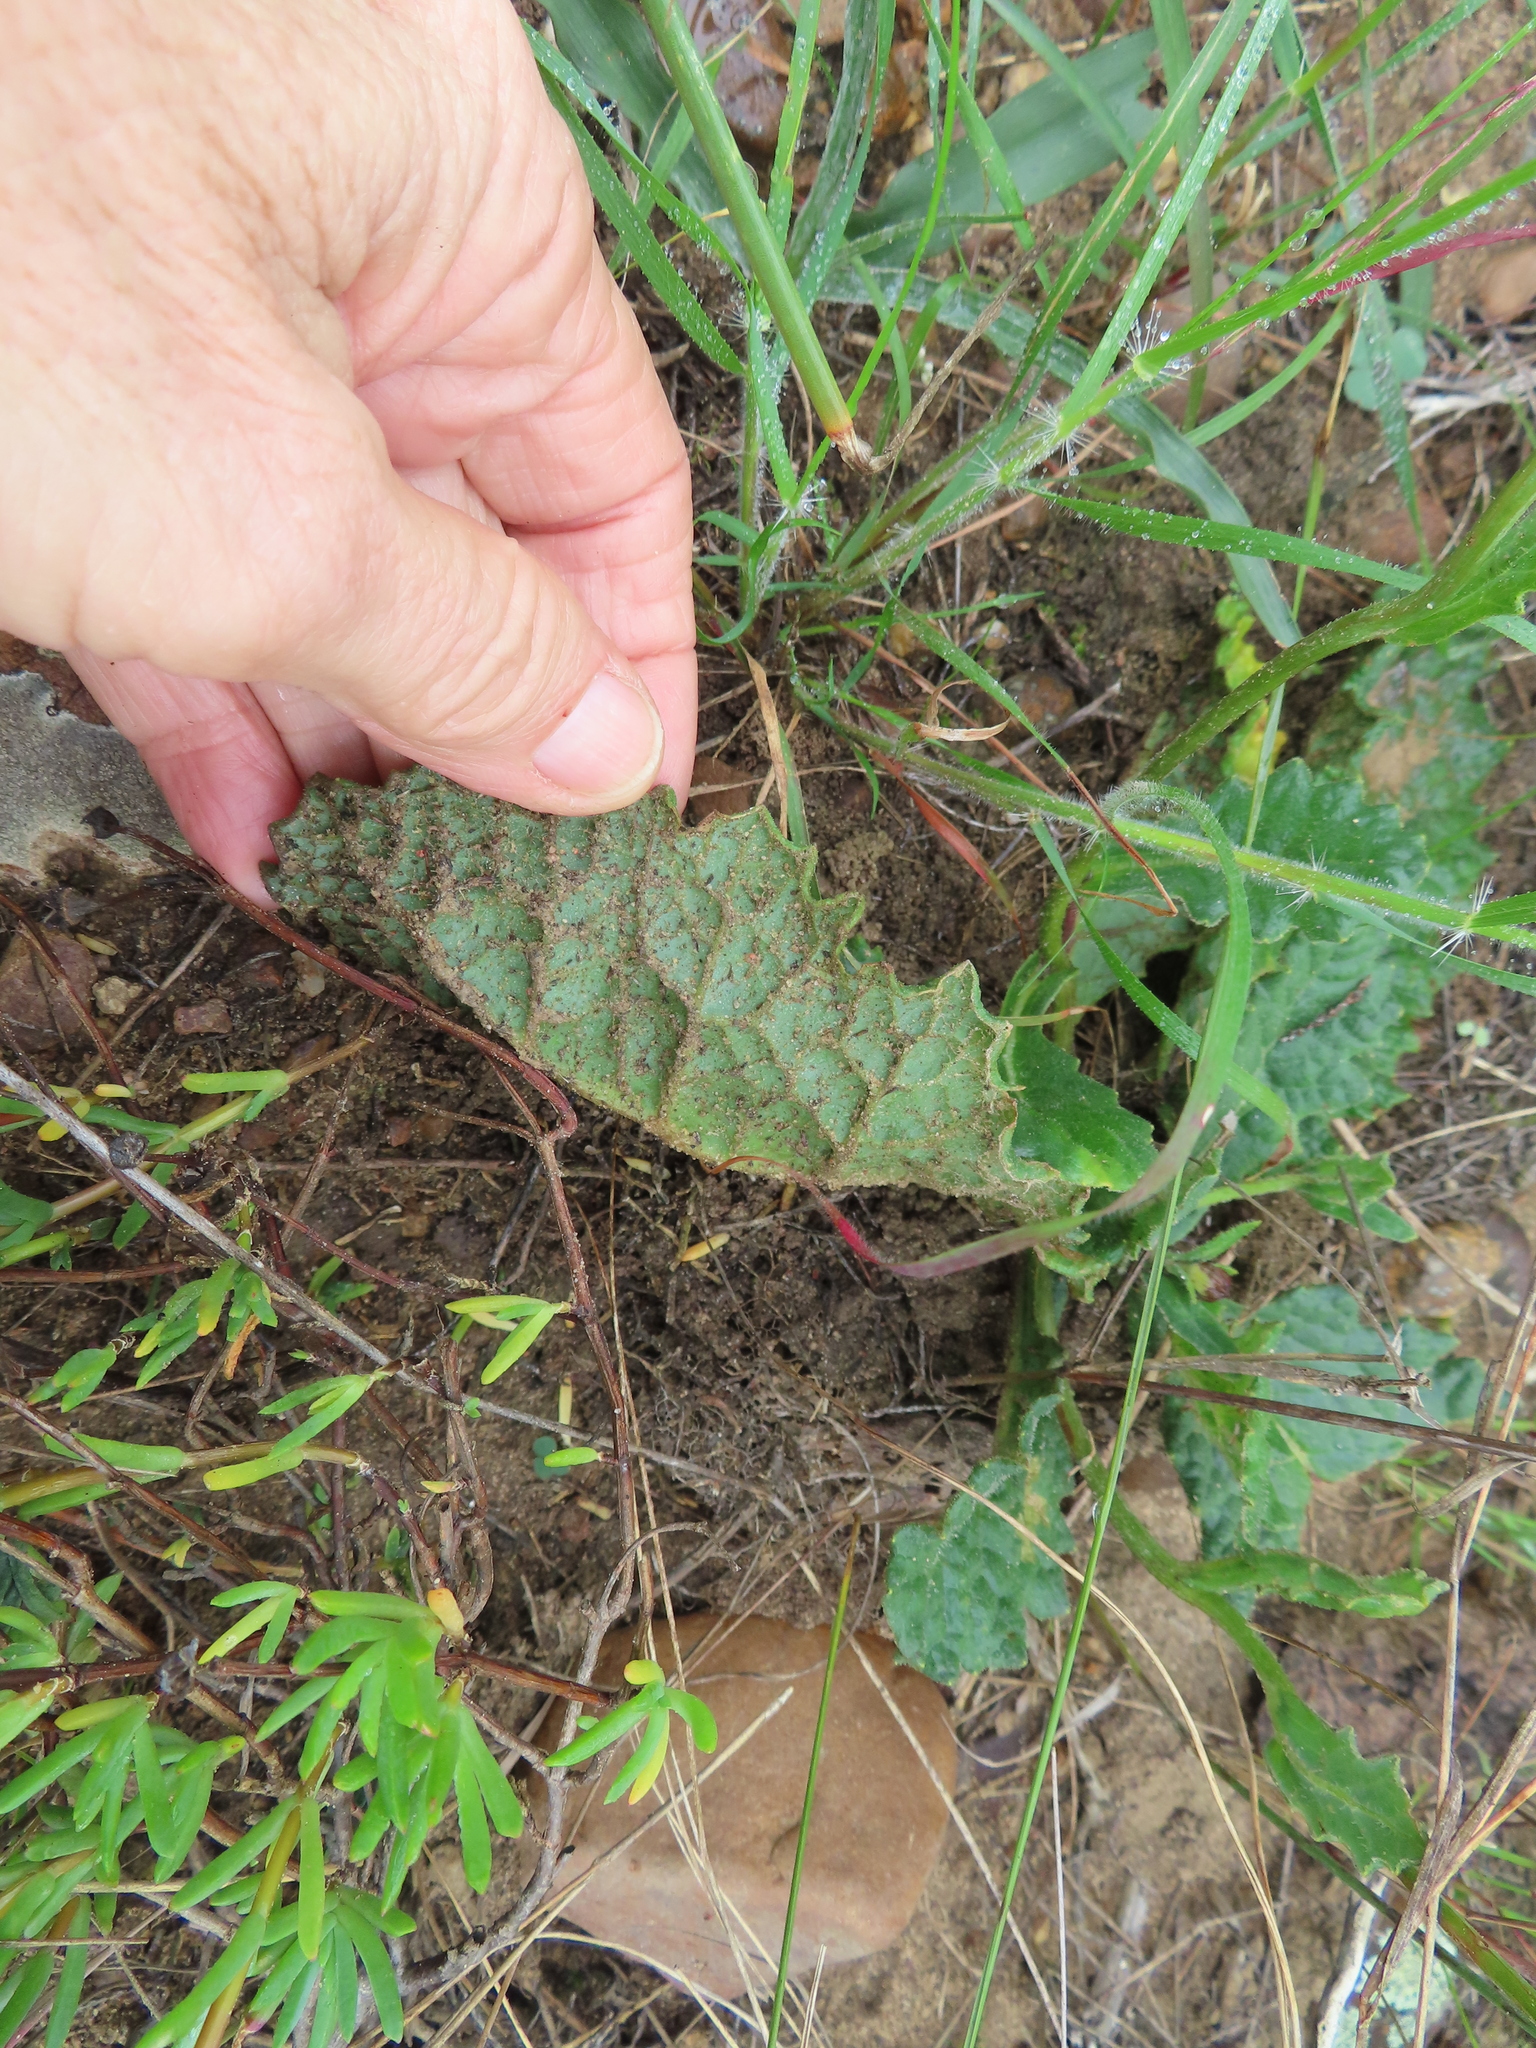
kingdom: Plantae
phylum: Tracheophyta
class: Magnoliopsida
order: Asterales
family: Asteraceae
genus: Othonna
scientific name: Othonna heterophylla
